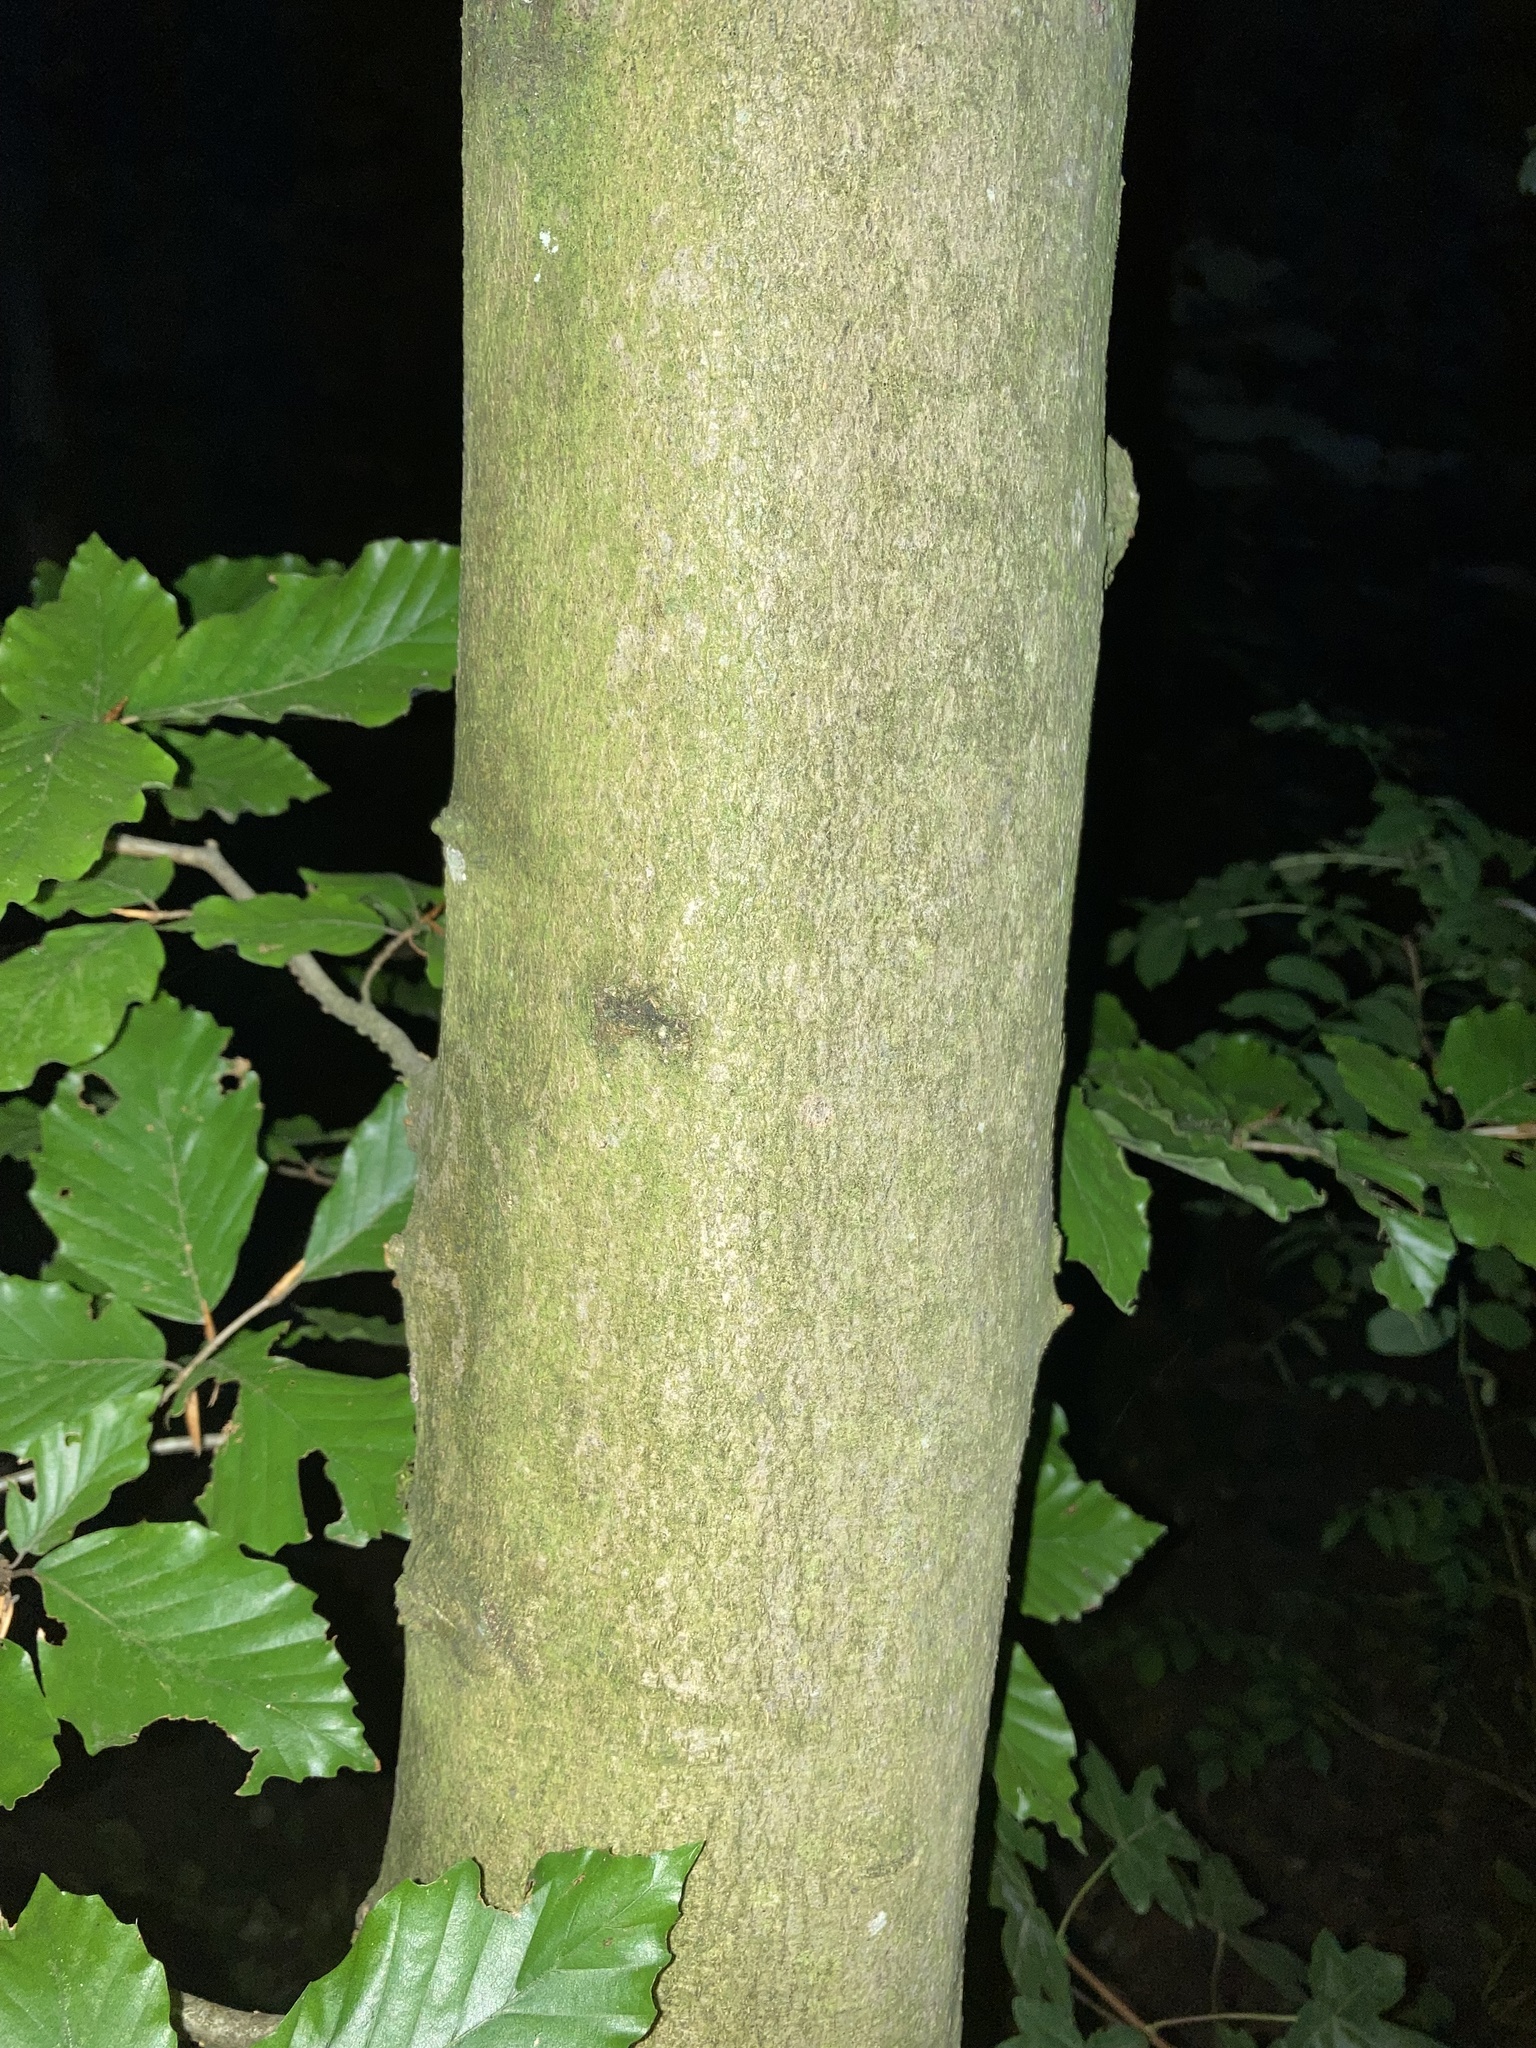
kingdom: Plantae
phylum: Tracheophyta
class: Magnoliopsida
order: Fagales
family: Fagaceae
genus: Fagus
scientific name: Fagus sylvatica
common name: Beech
